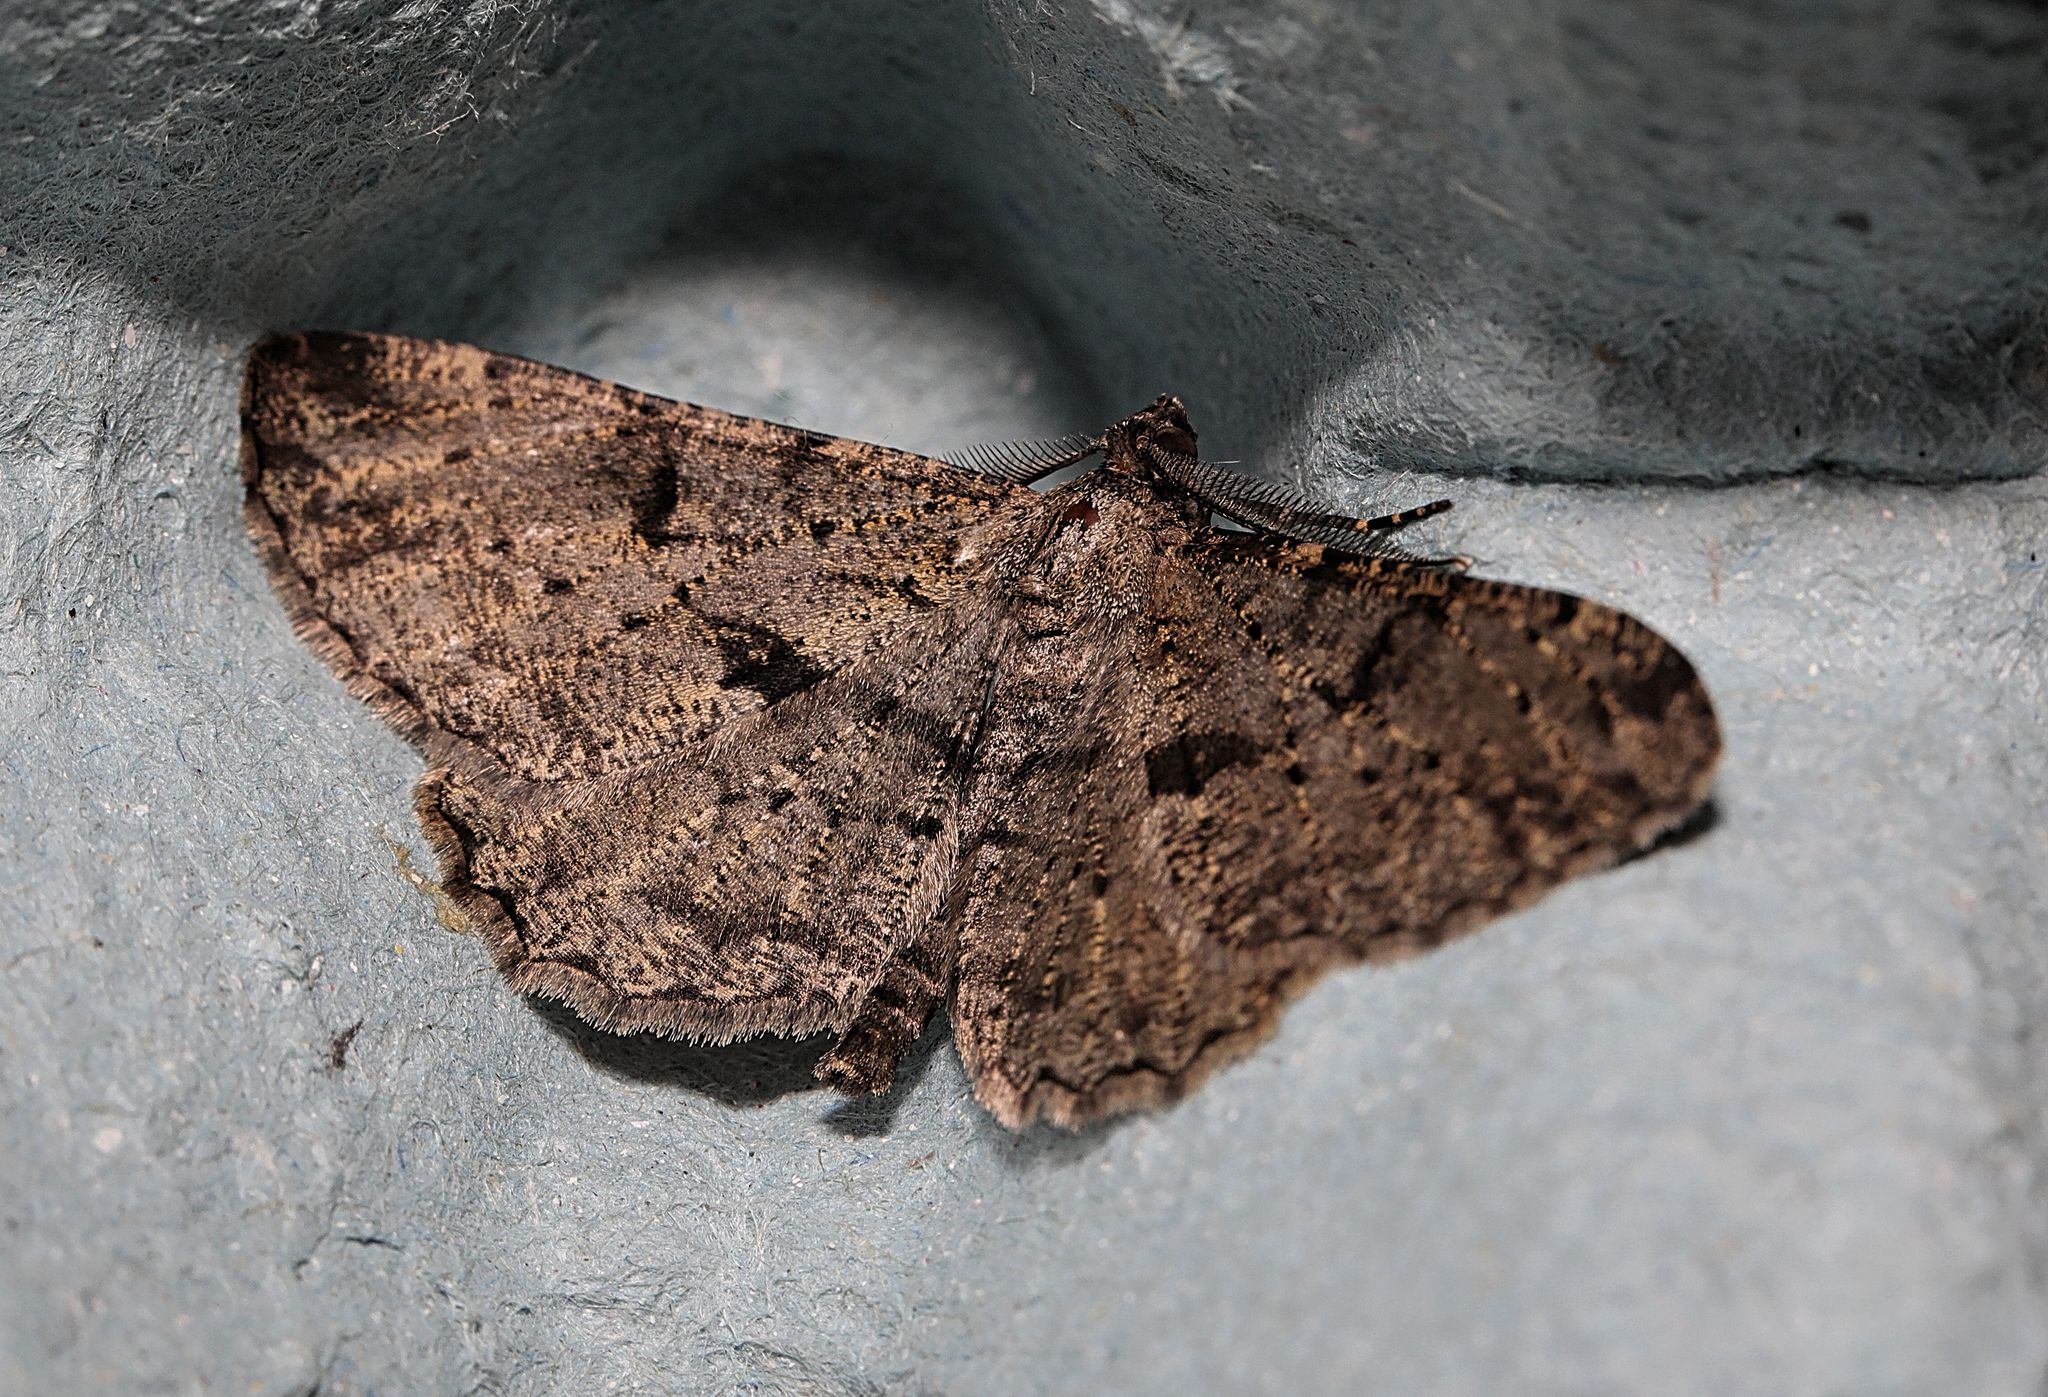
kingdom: Animalia
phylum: Arthropoda
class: Insecta
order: Lepidoptera
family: Geometridae
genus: Peribatodes
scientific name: Peribatodes rhomboidaria
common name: Willow beauty
